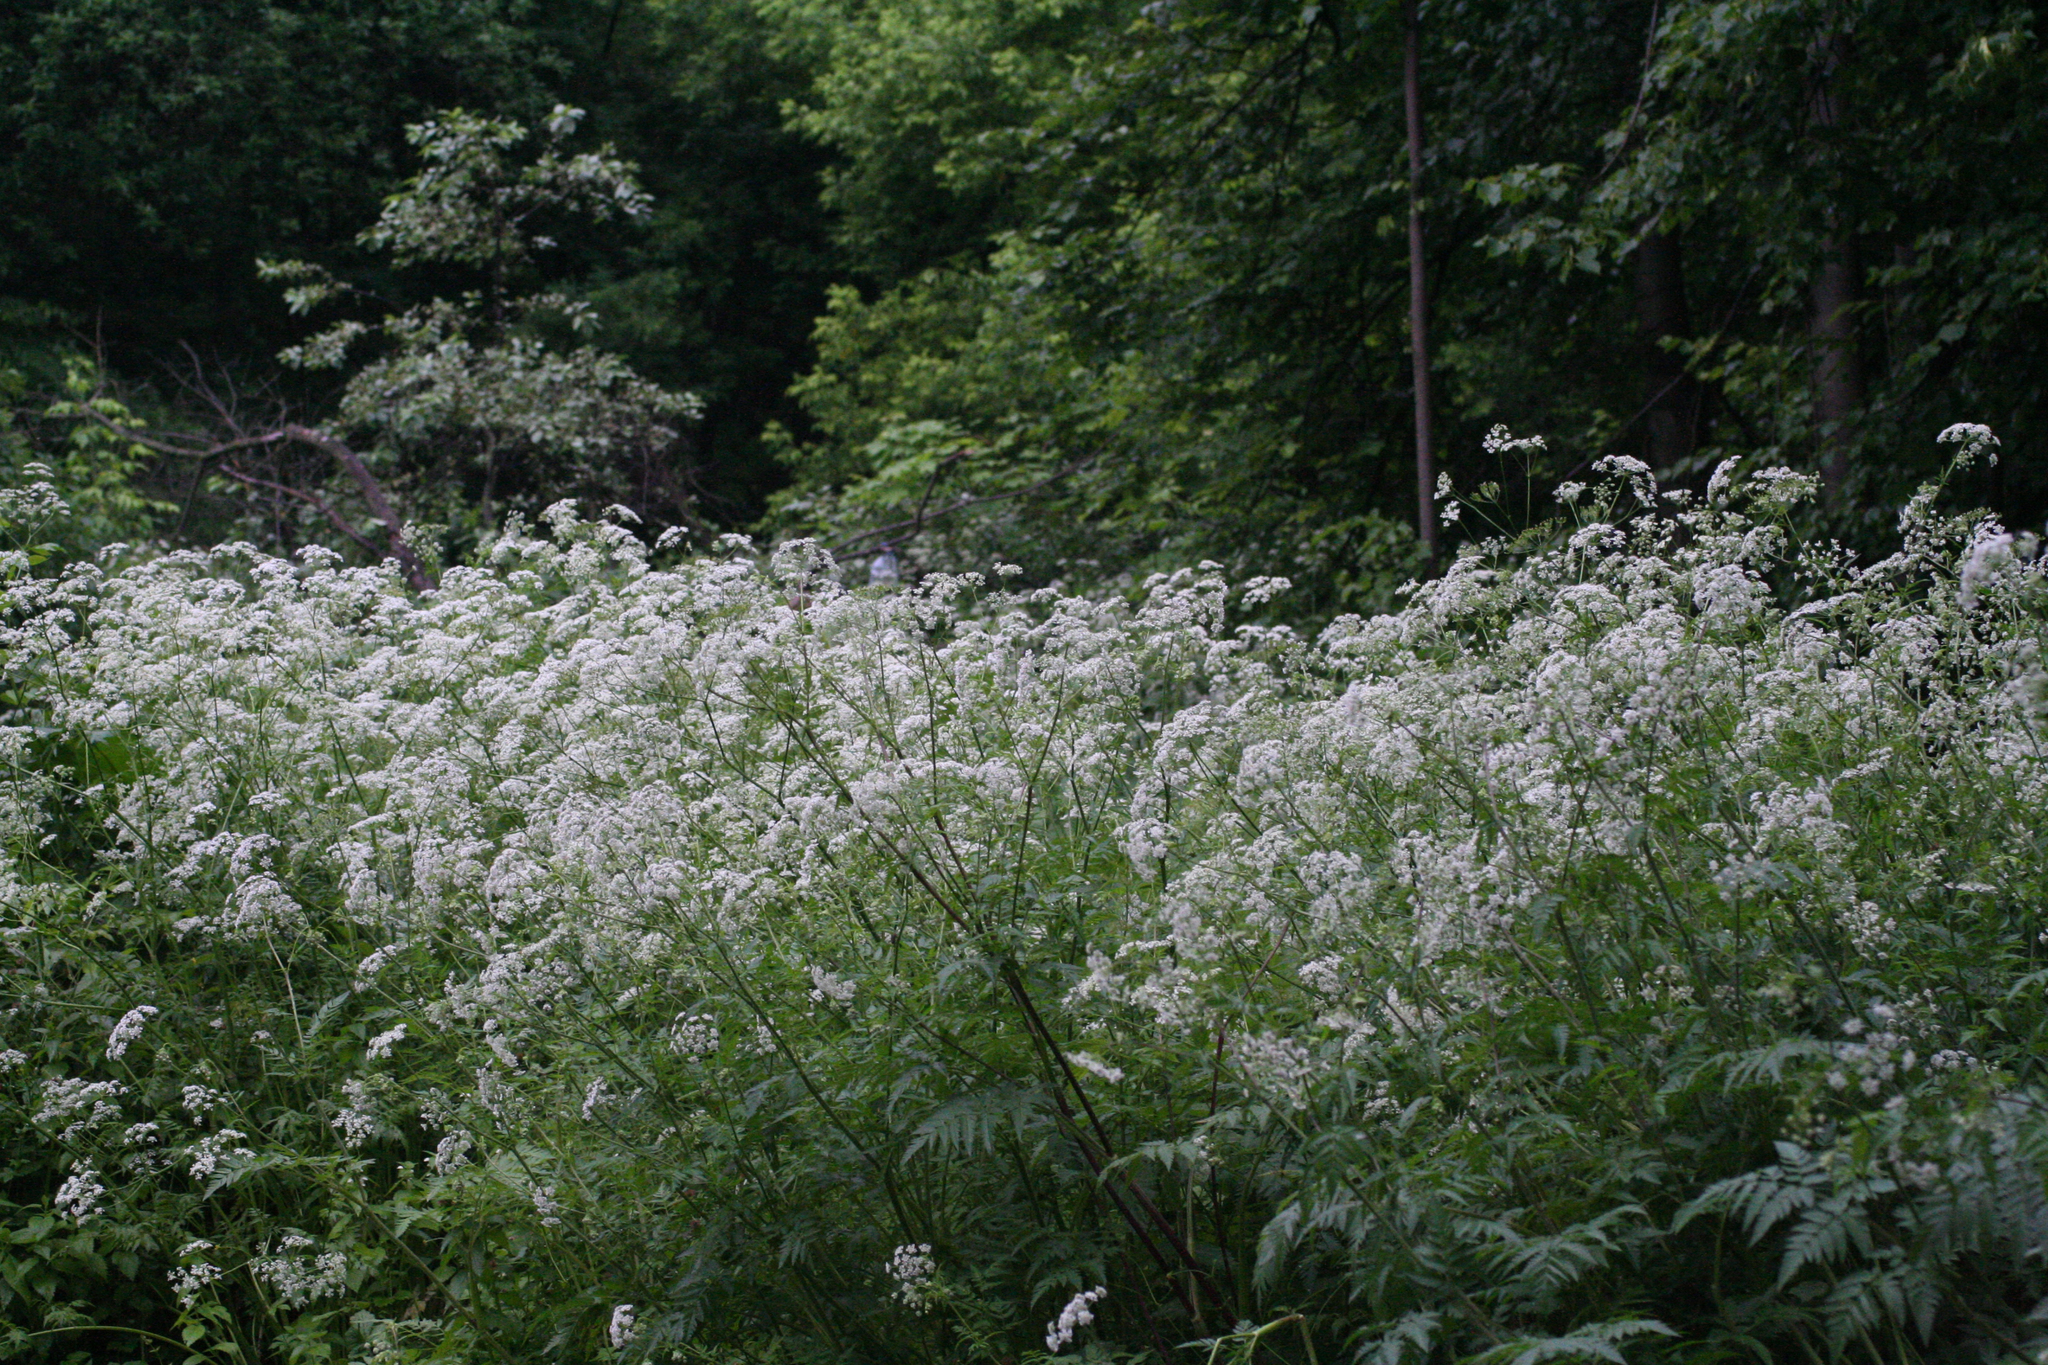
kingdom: Plantae
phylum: Tracheophyta
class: Magnoliopsida
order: Apiales
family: Apiaceae
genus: Chaerophyllum
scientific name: Chaerophyllum aureum
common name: Golden chervil
